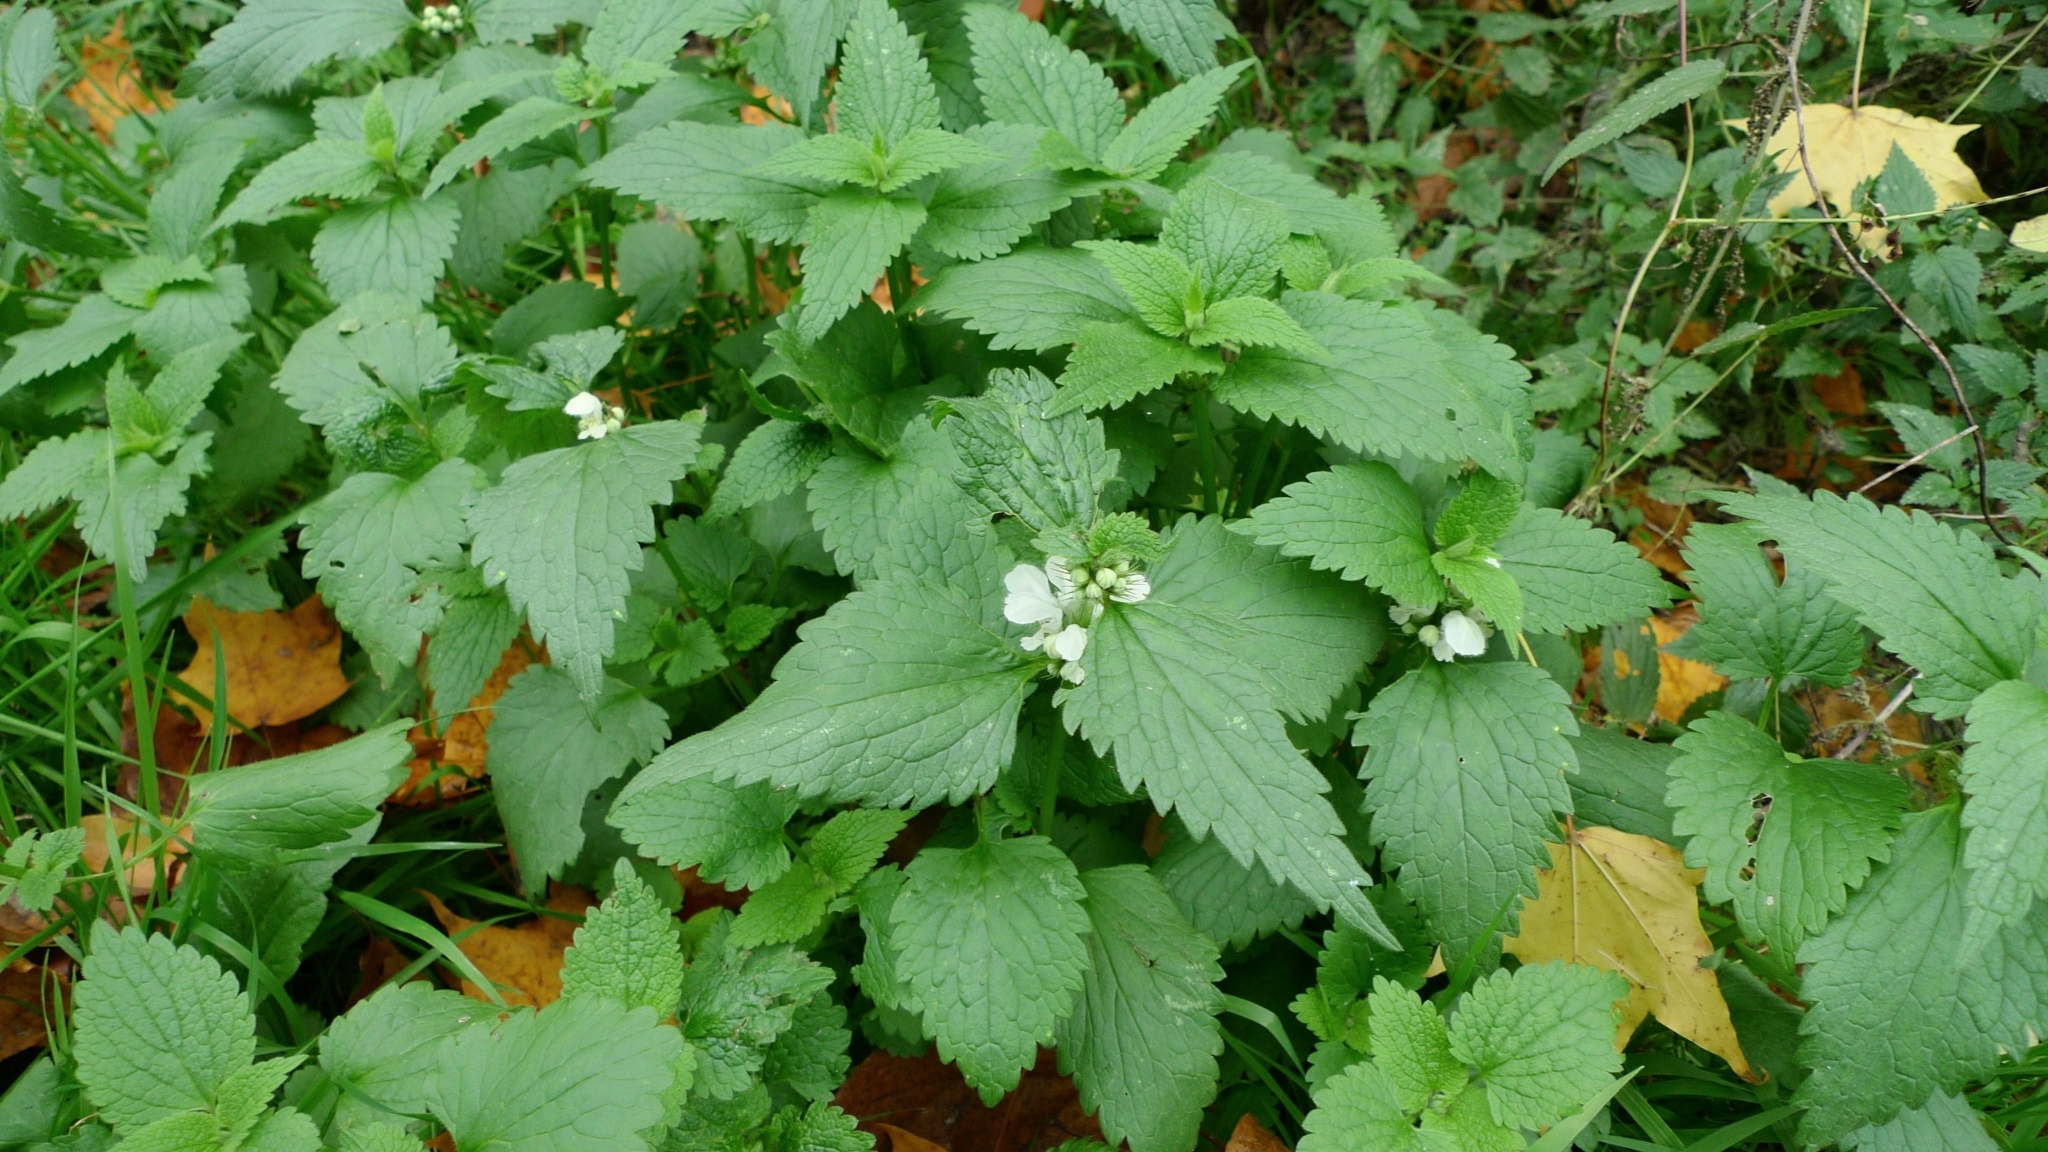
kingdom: Plantae
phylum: Tracheophyta
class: Magnoliopsida
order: Lamiales
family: Lamiaceae
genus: Lamium
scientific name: Lamium album
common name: White dead-nettle
